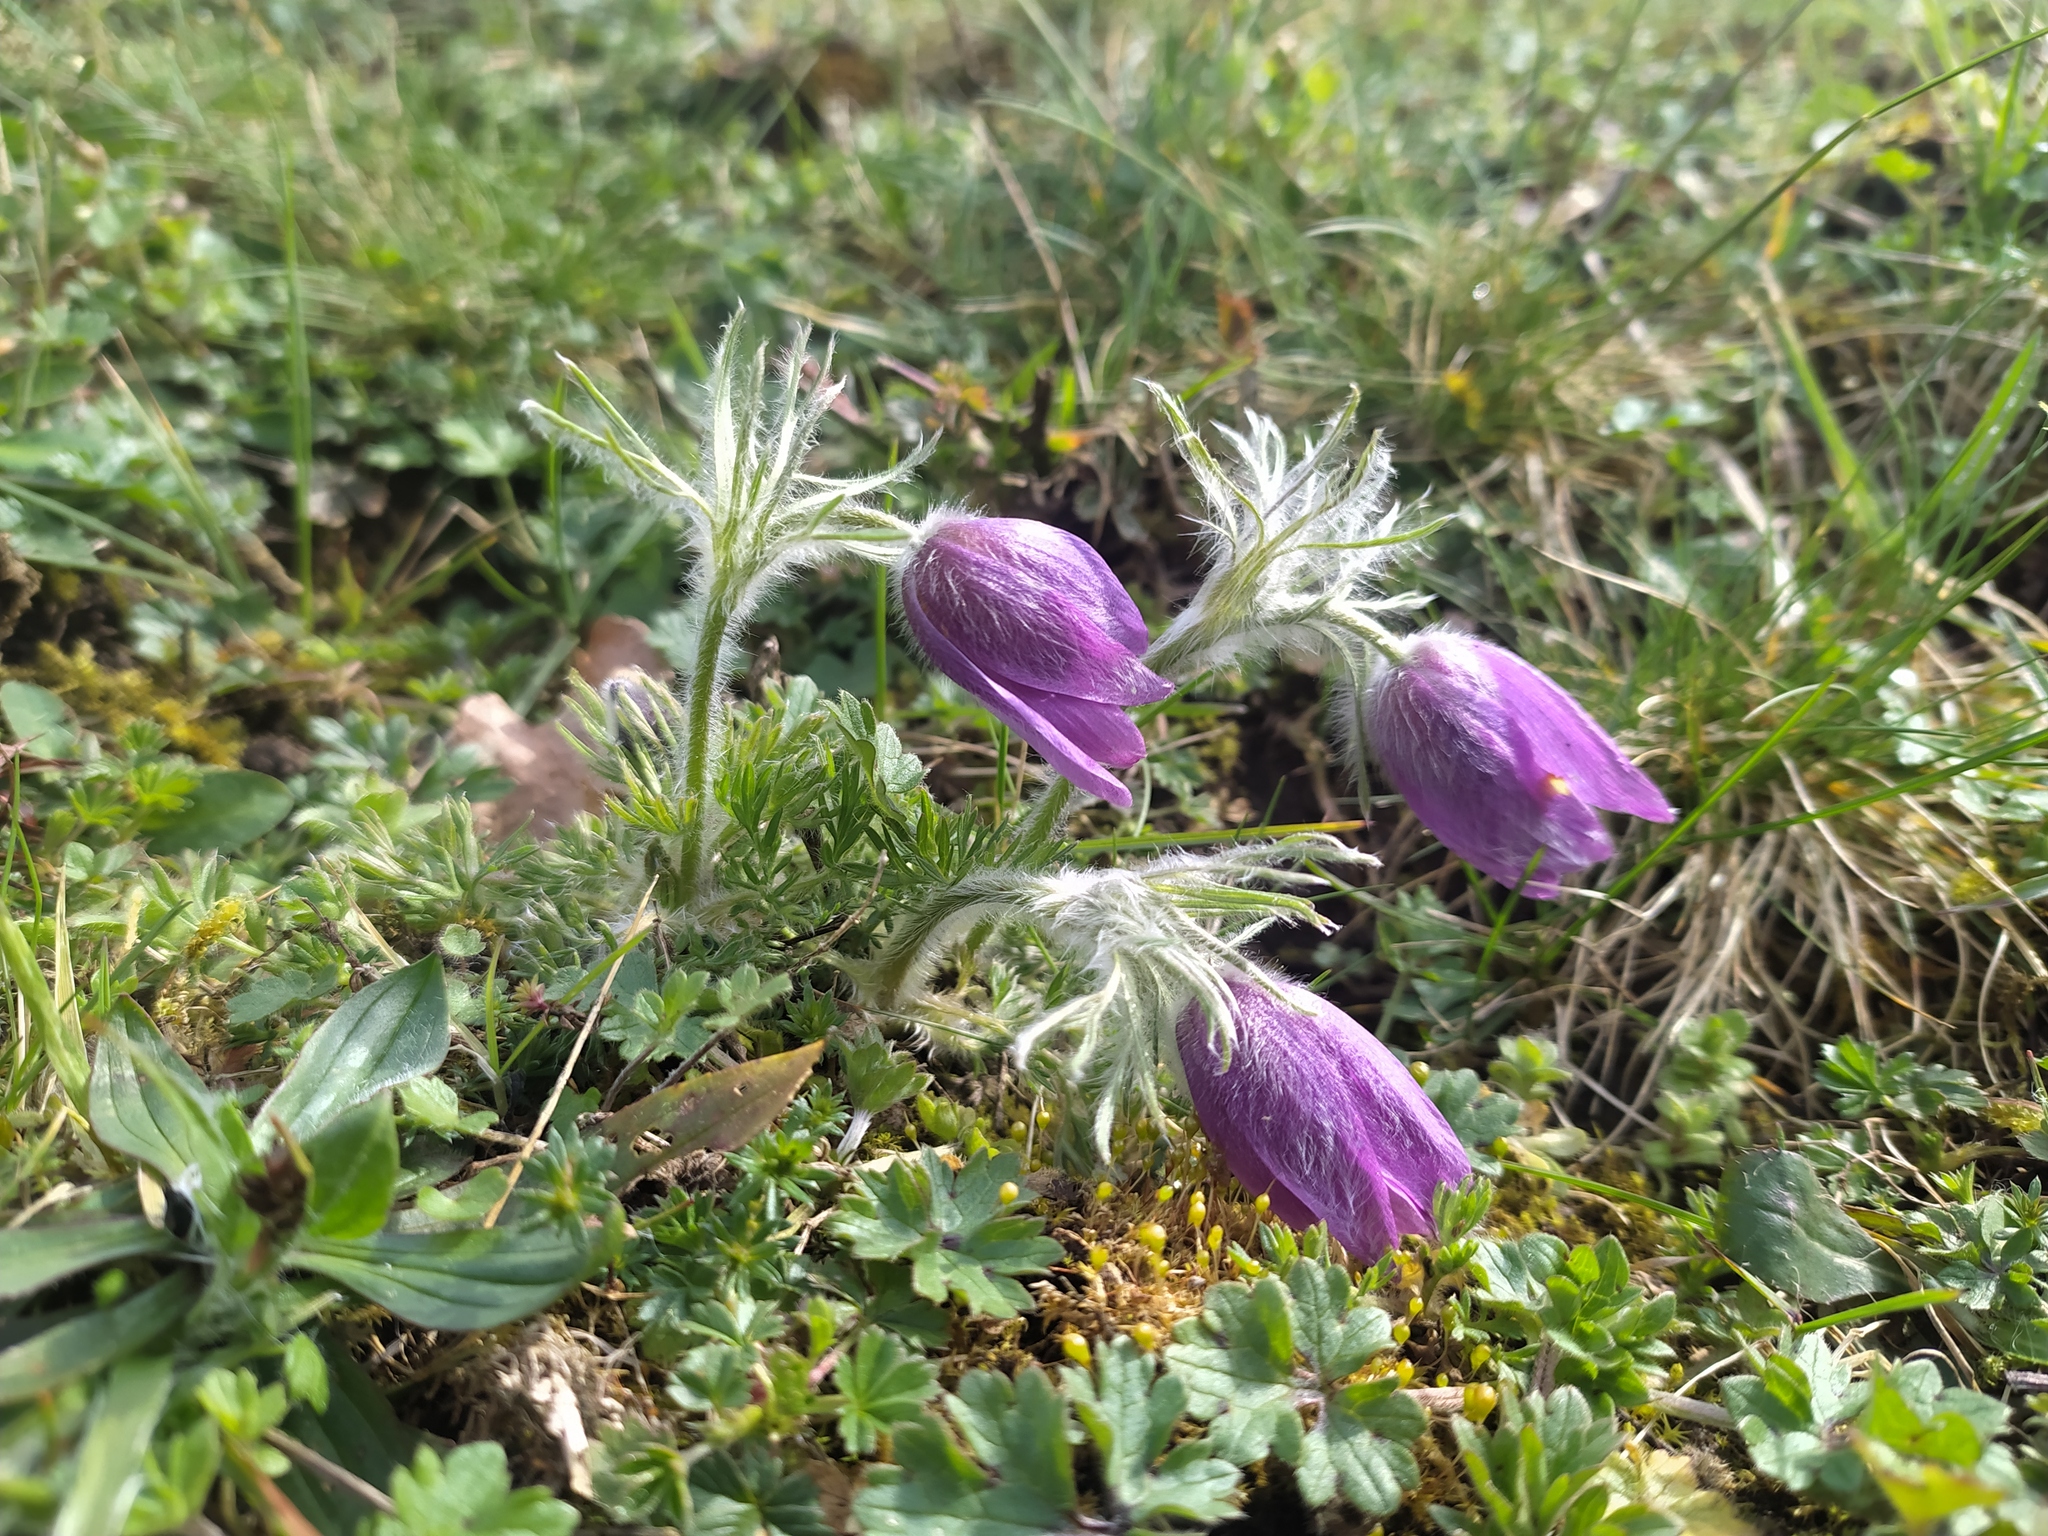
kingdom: Plantae
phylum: Tracheophyta
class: Magnoliopsida
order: Ranunculales
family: Ranunculaceae
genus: Pulsatilla
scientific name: Pulsatilla vulgaris
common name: Pasqueflower
